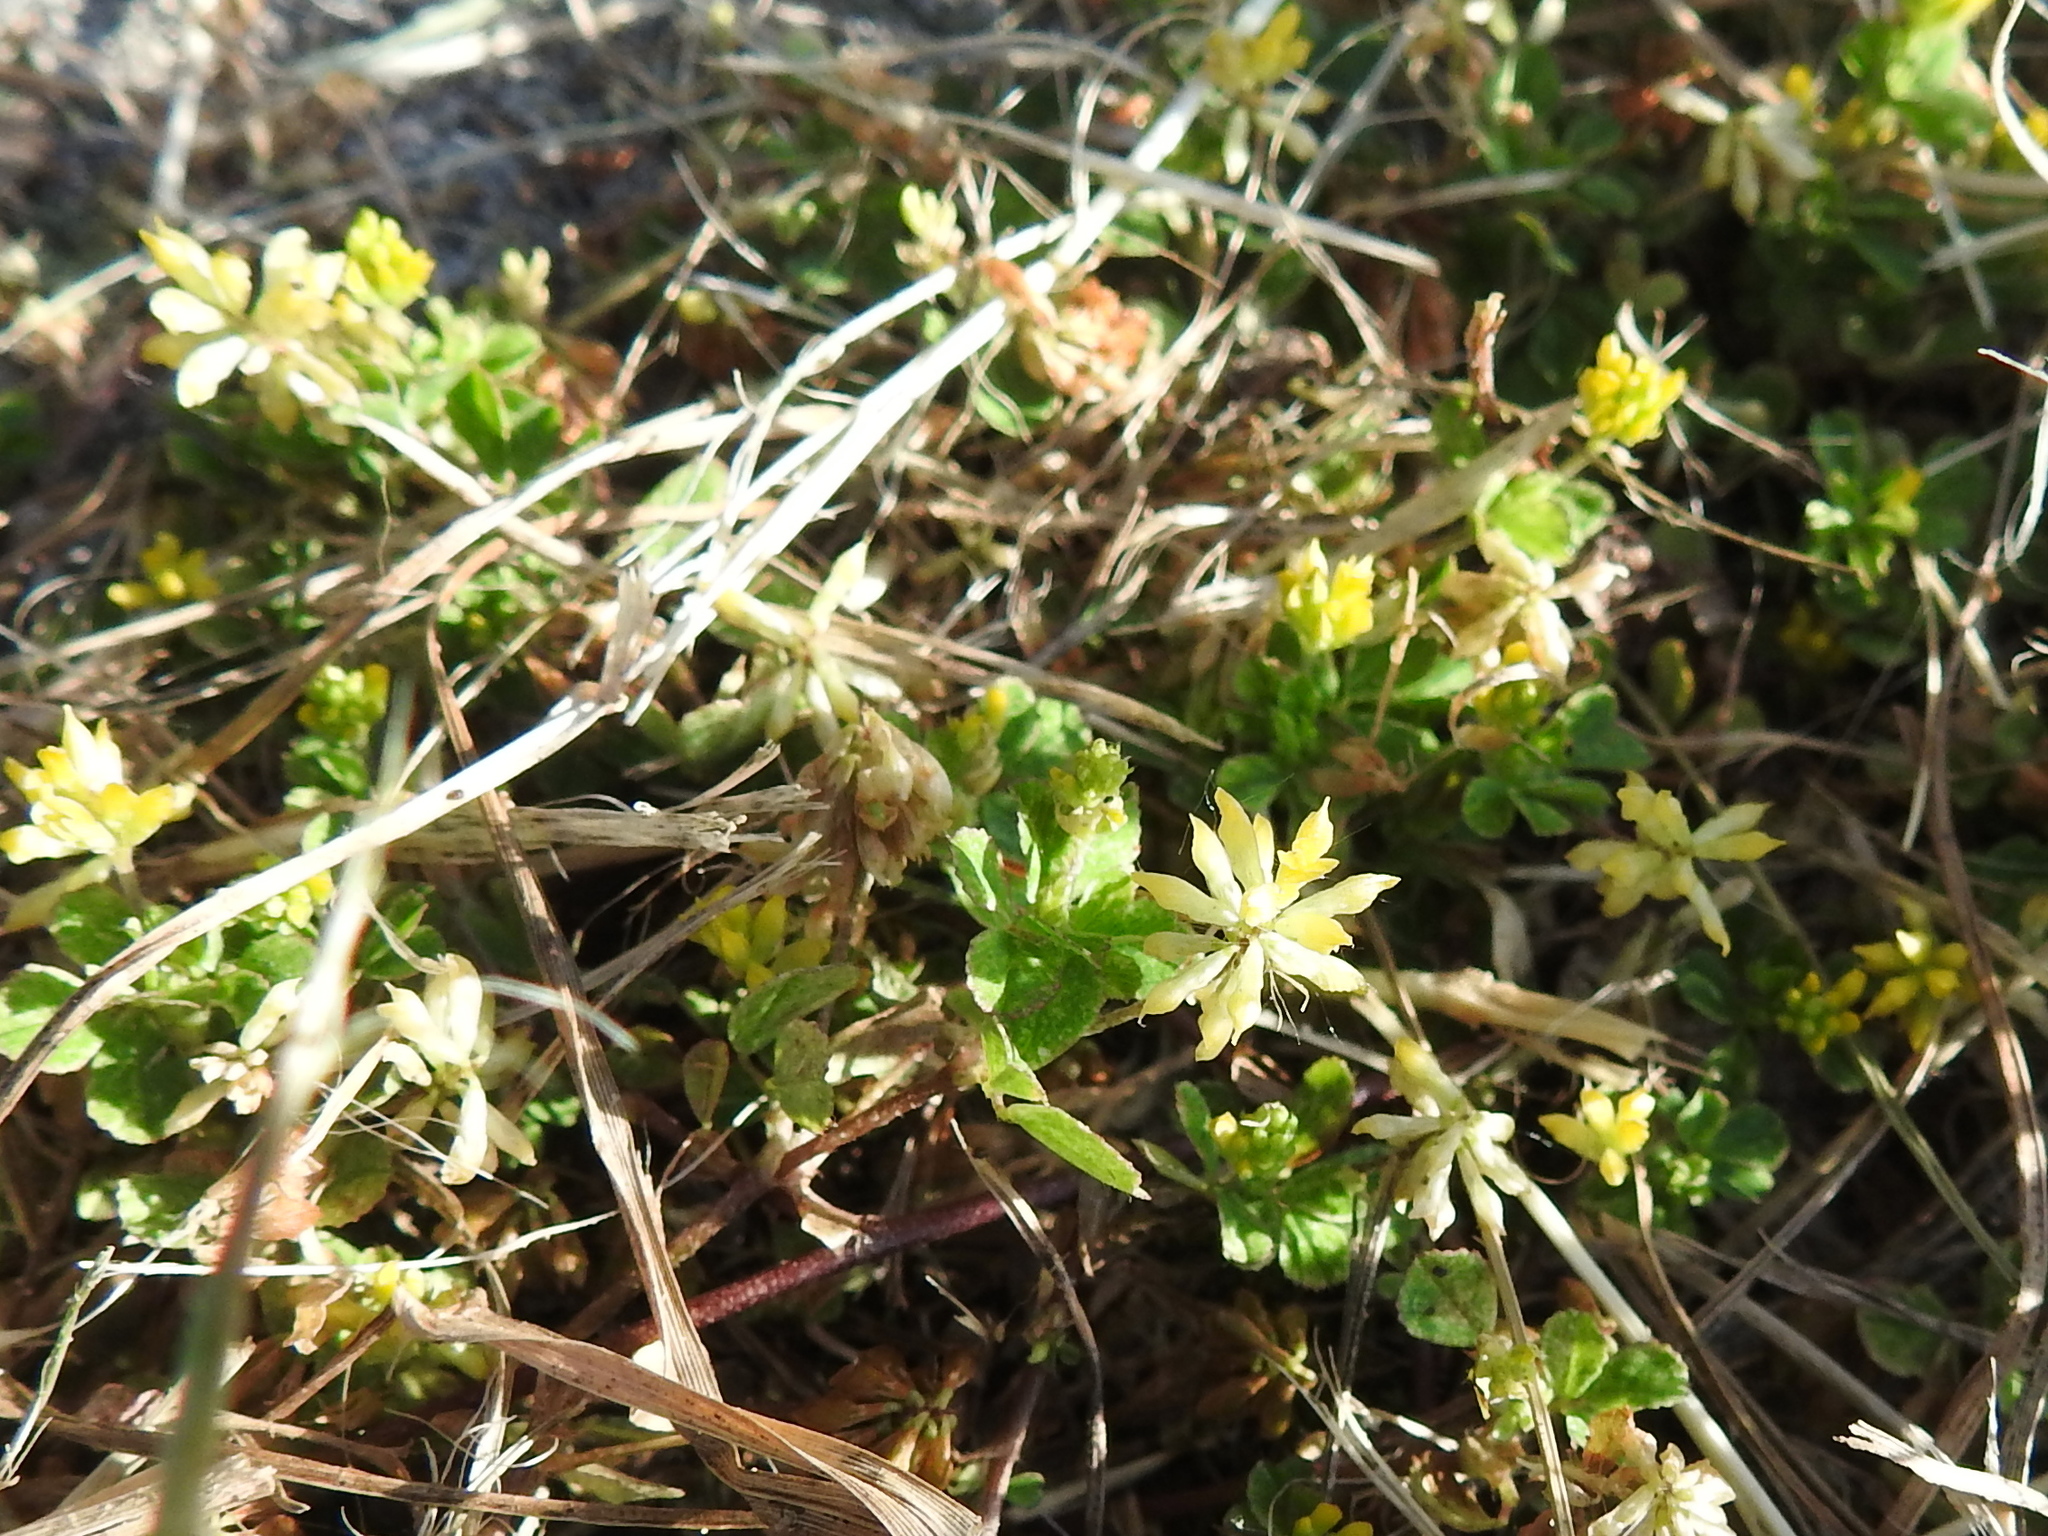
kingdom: Plantae
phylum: Tracheophyta
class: Magnoliopsida
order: Fabales
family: Fabaceae
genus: Trifolium
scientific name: Trifolium dubium
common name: Suckling clover
